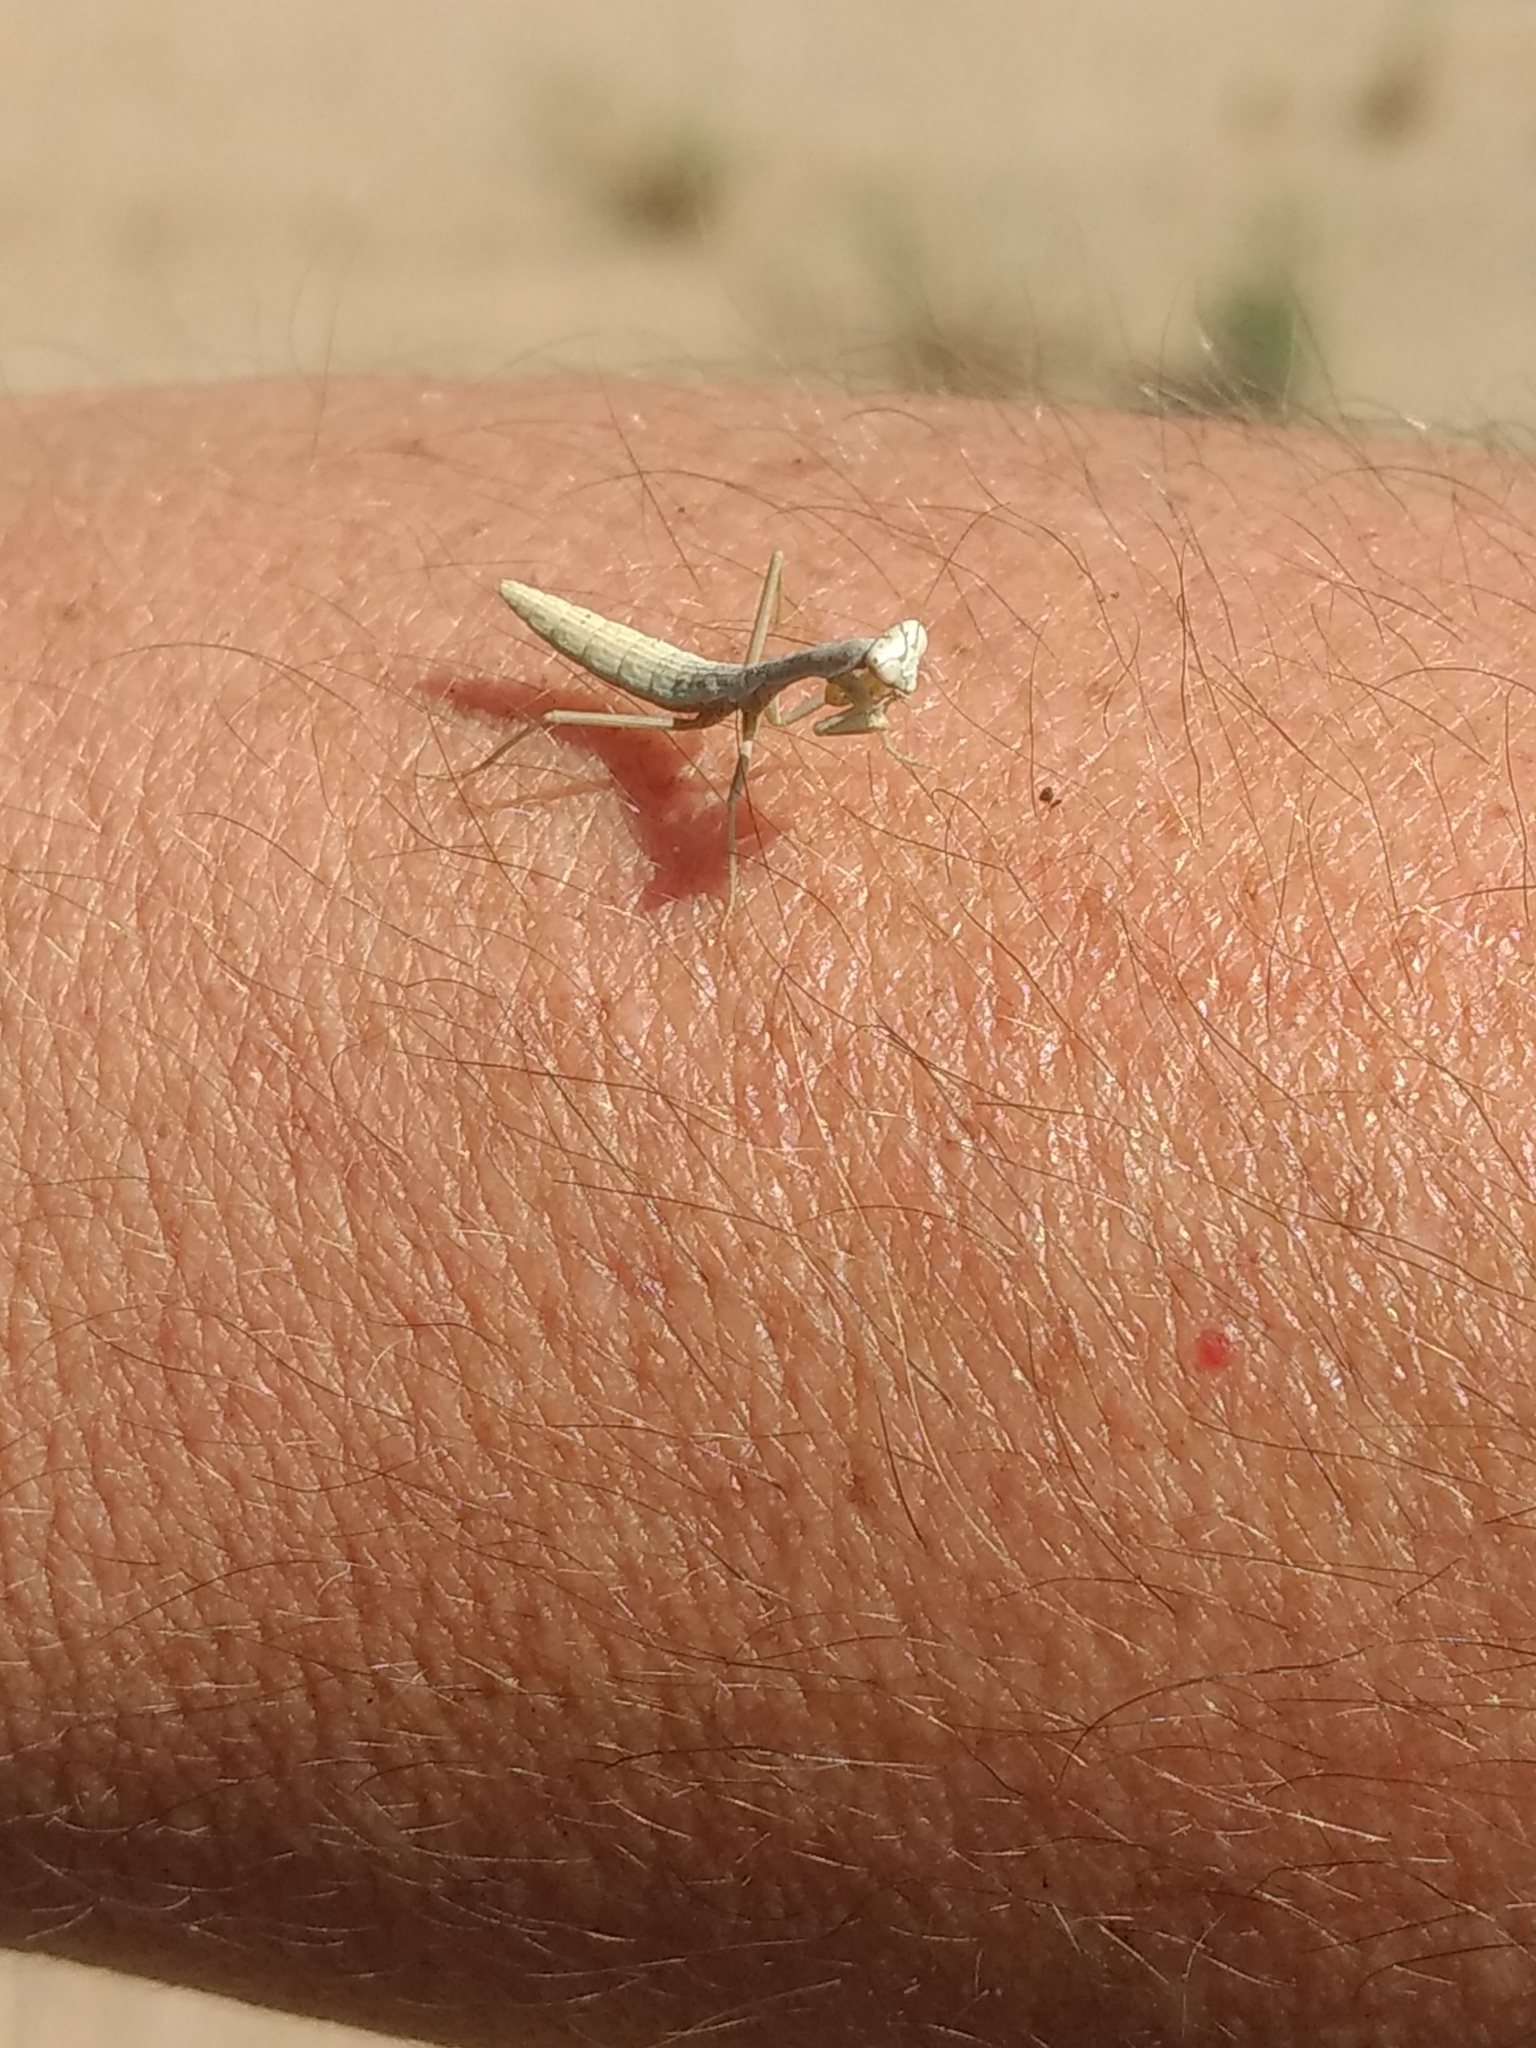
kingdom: Animalia
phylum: Arthropoda
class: Insecta
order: Mantodea
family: Eremiaphilidae
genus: Iris
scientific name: Iris oratoria
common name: Mediterranean mantis
